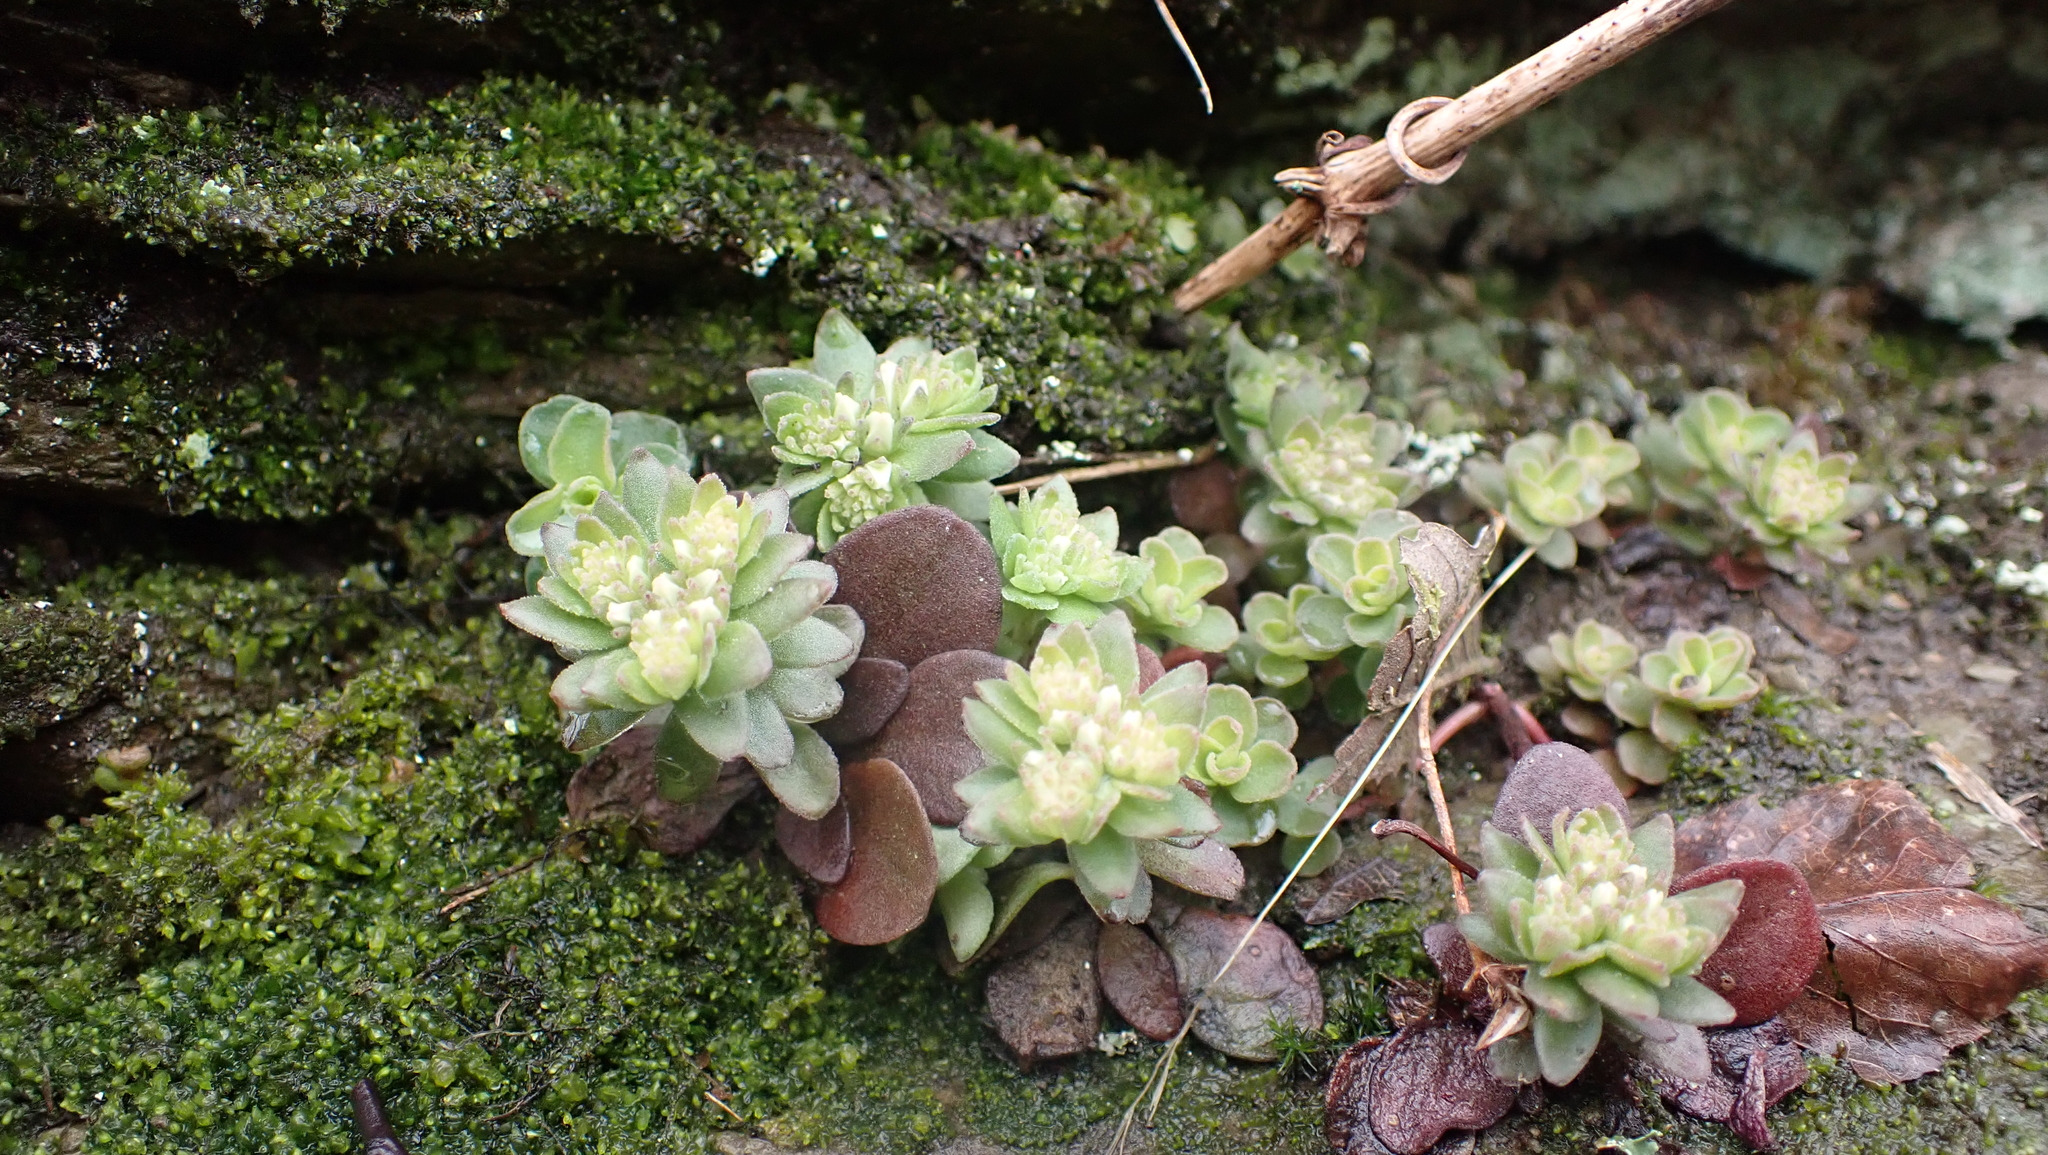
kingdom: Plantae
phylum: Tracheophyta
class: Magnoliopsida
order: Saxifragales
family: Crassulaceae
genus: Sedum
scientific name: Sedum ternatum
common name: Wild stonecrop
